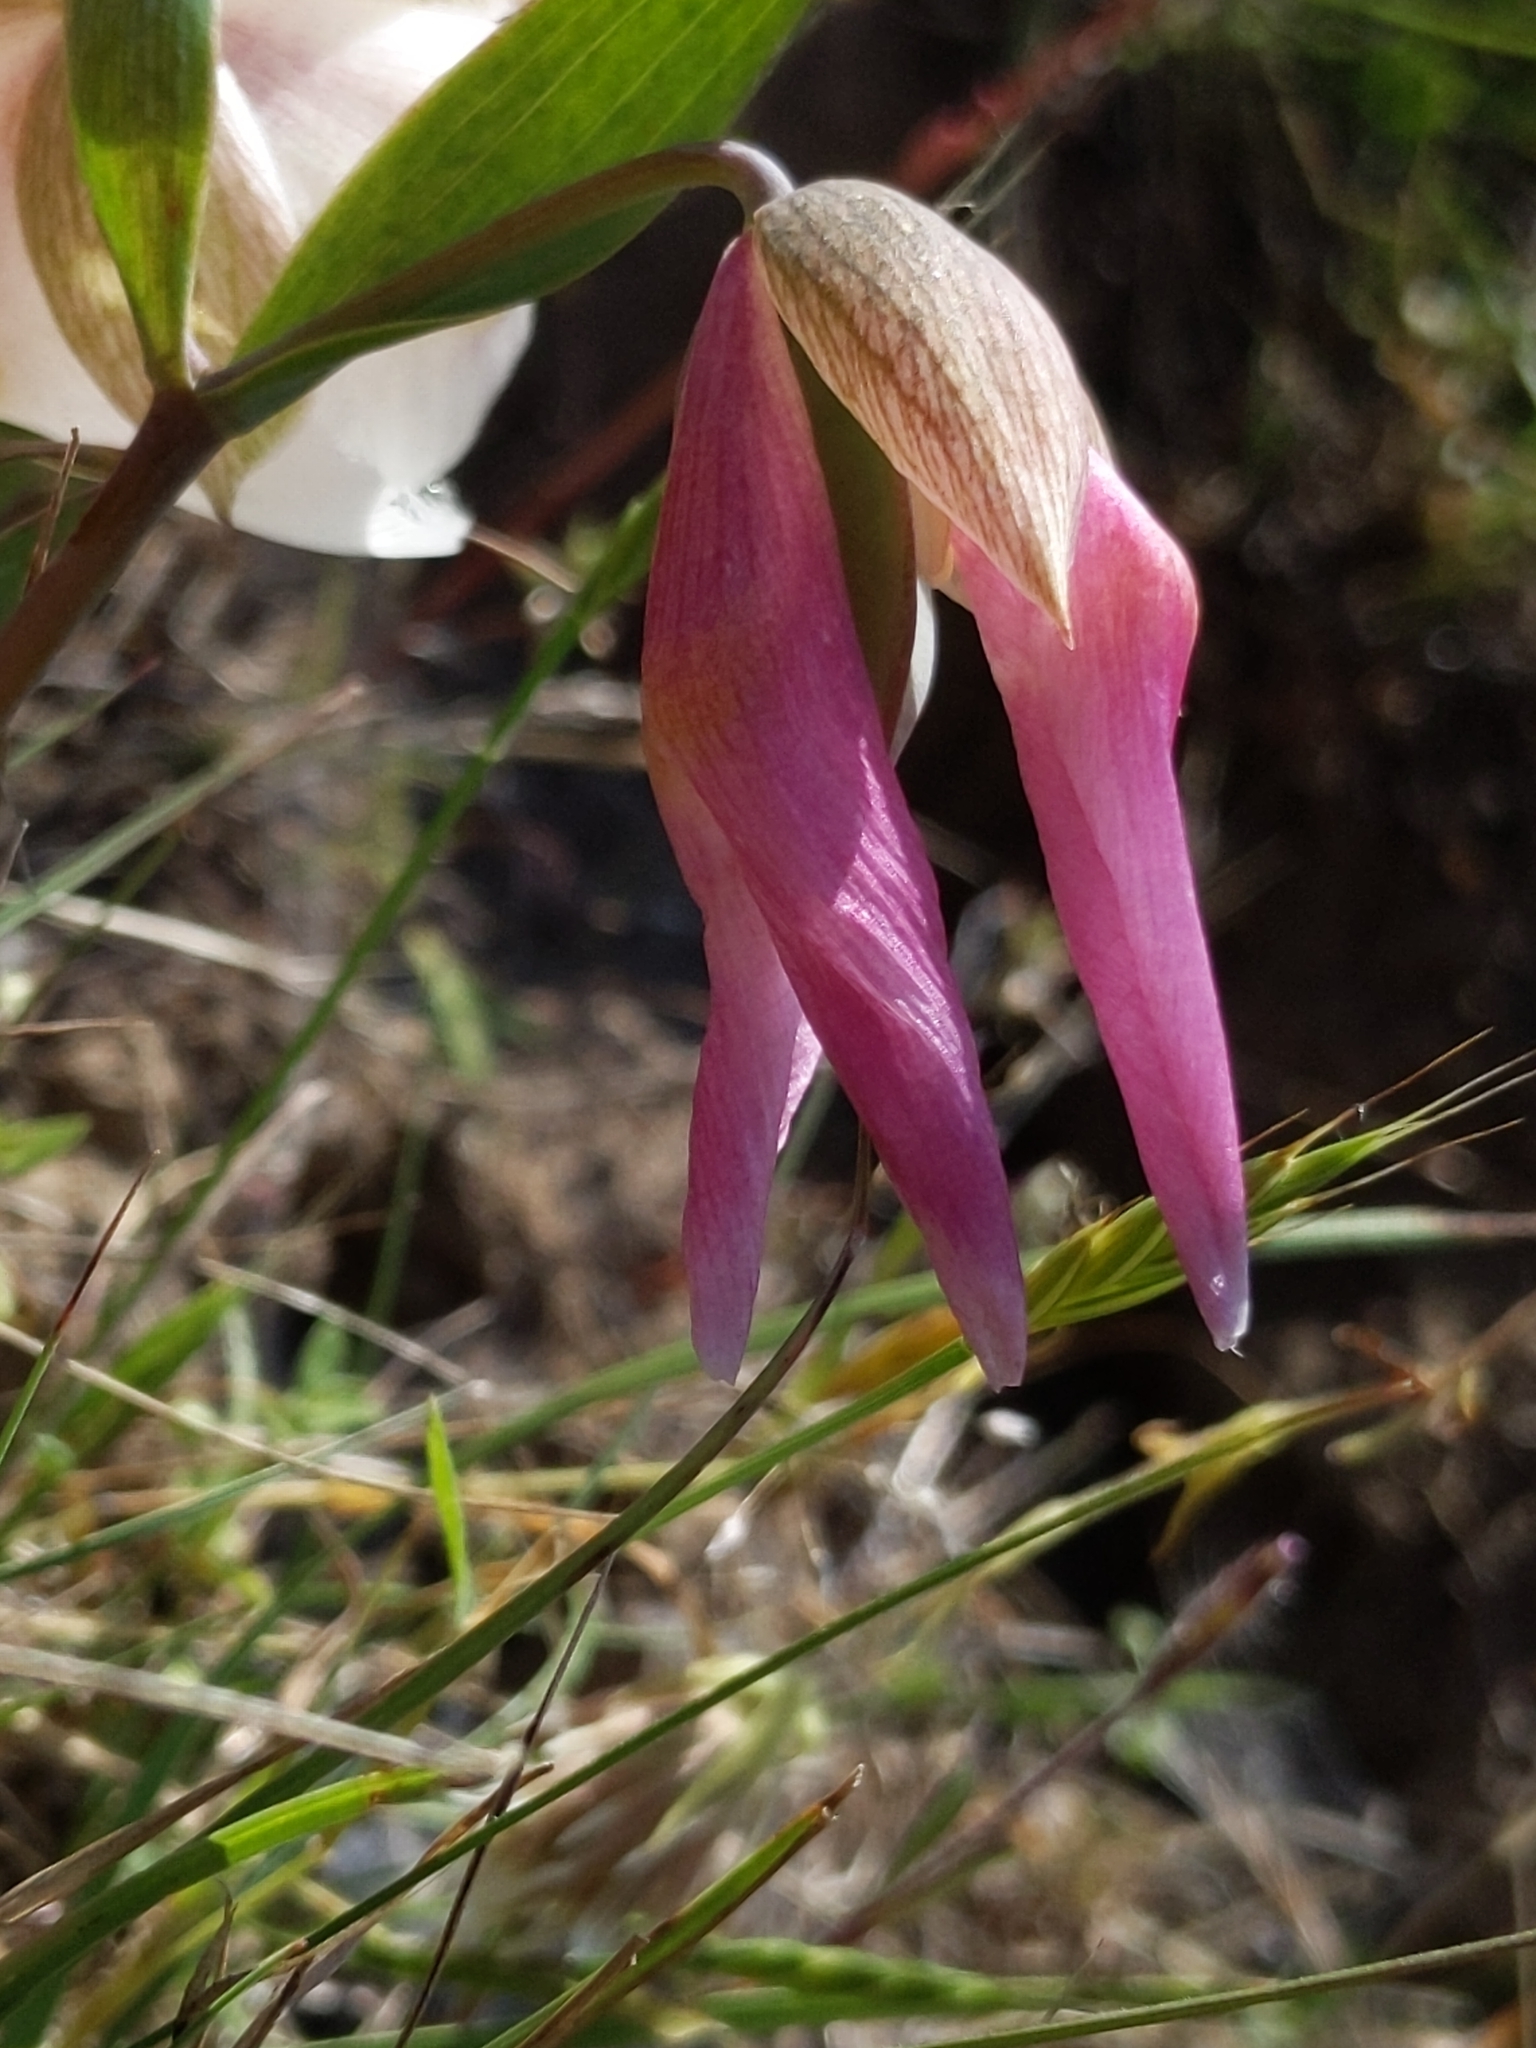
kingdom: Plantae
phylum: Tracheophyta
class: Liliopsida
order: Liliales
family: Liliaceae
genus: Calochortus
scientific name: Calochortus albus
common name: Fairy-lantern
